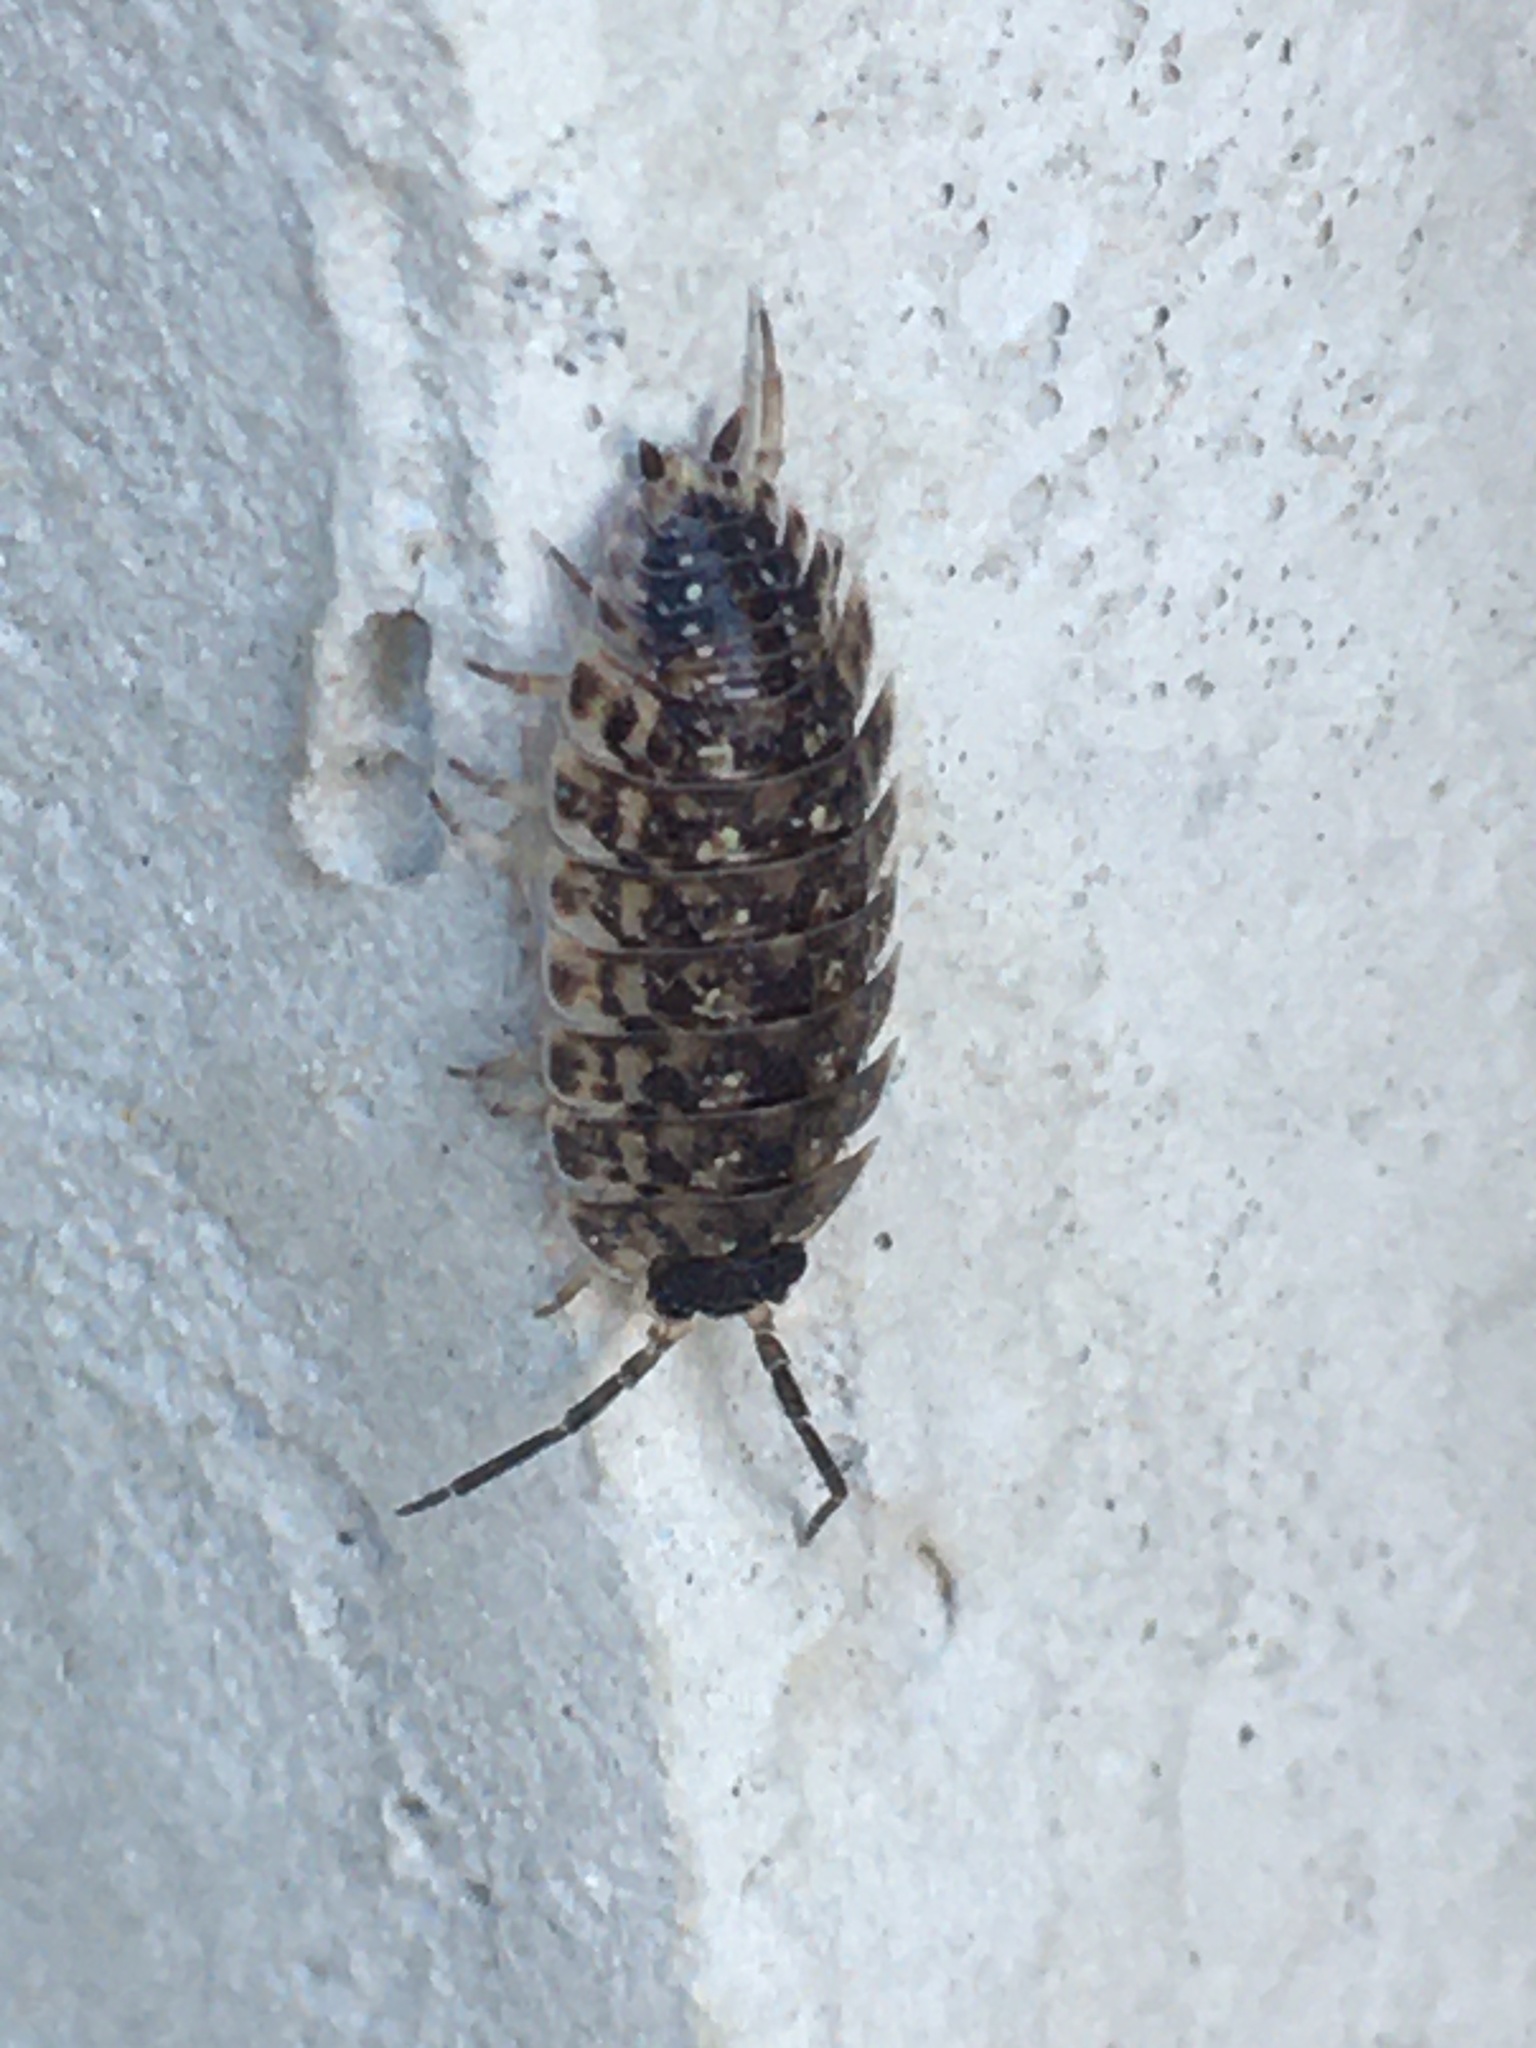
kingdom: Animalia
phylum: Arthropoda
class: Malacostraca
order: Isopoda
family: Porcellionidae
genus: Porcellio
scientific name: Porcellio spinicornis
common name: Painted woodlouse
